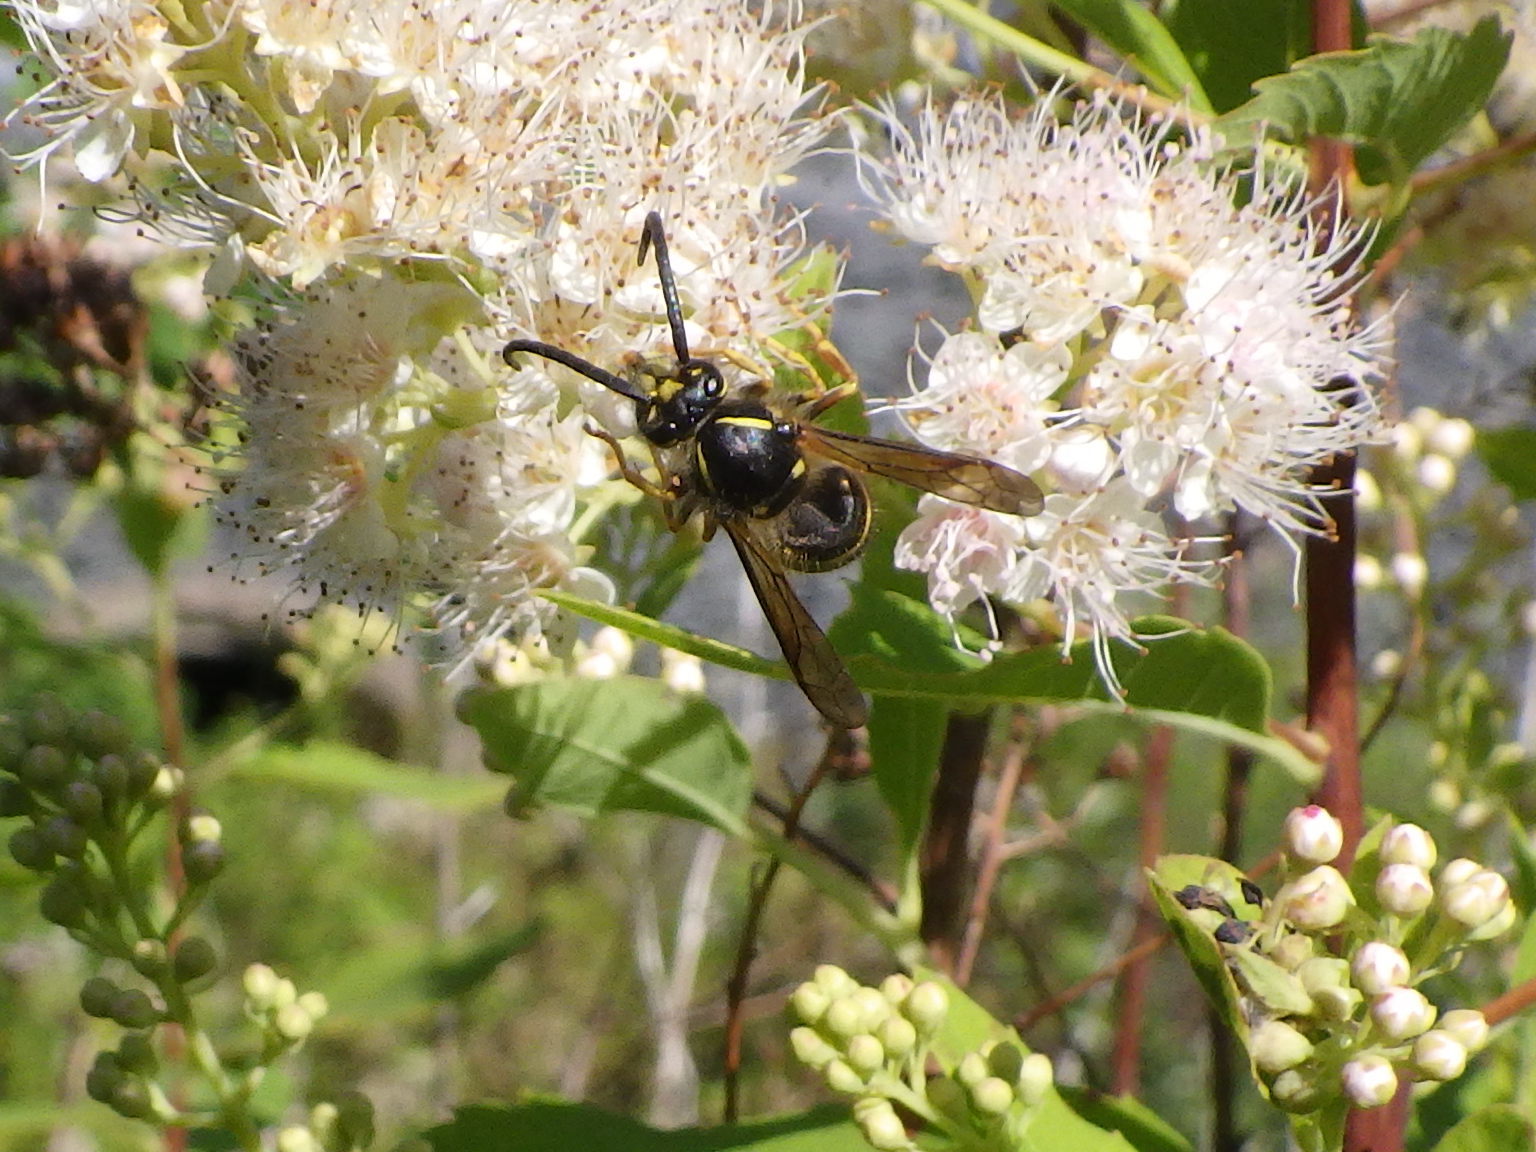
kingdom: Animalia
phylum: Arthropoda
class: Insecta
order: Hymenoptera
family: Vespidae
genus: Dolichovespula
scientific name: Dolichovespula norvegicoides
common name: Northern aerial yellowjacket
